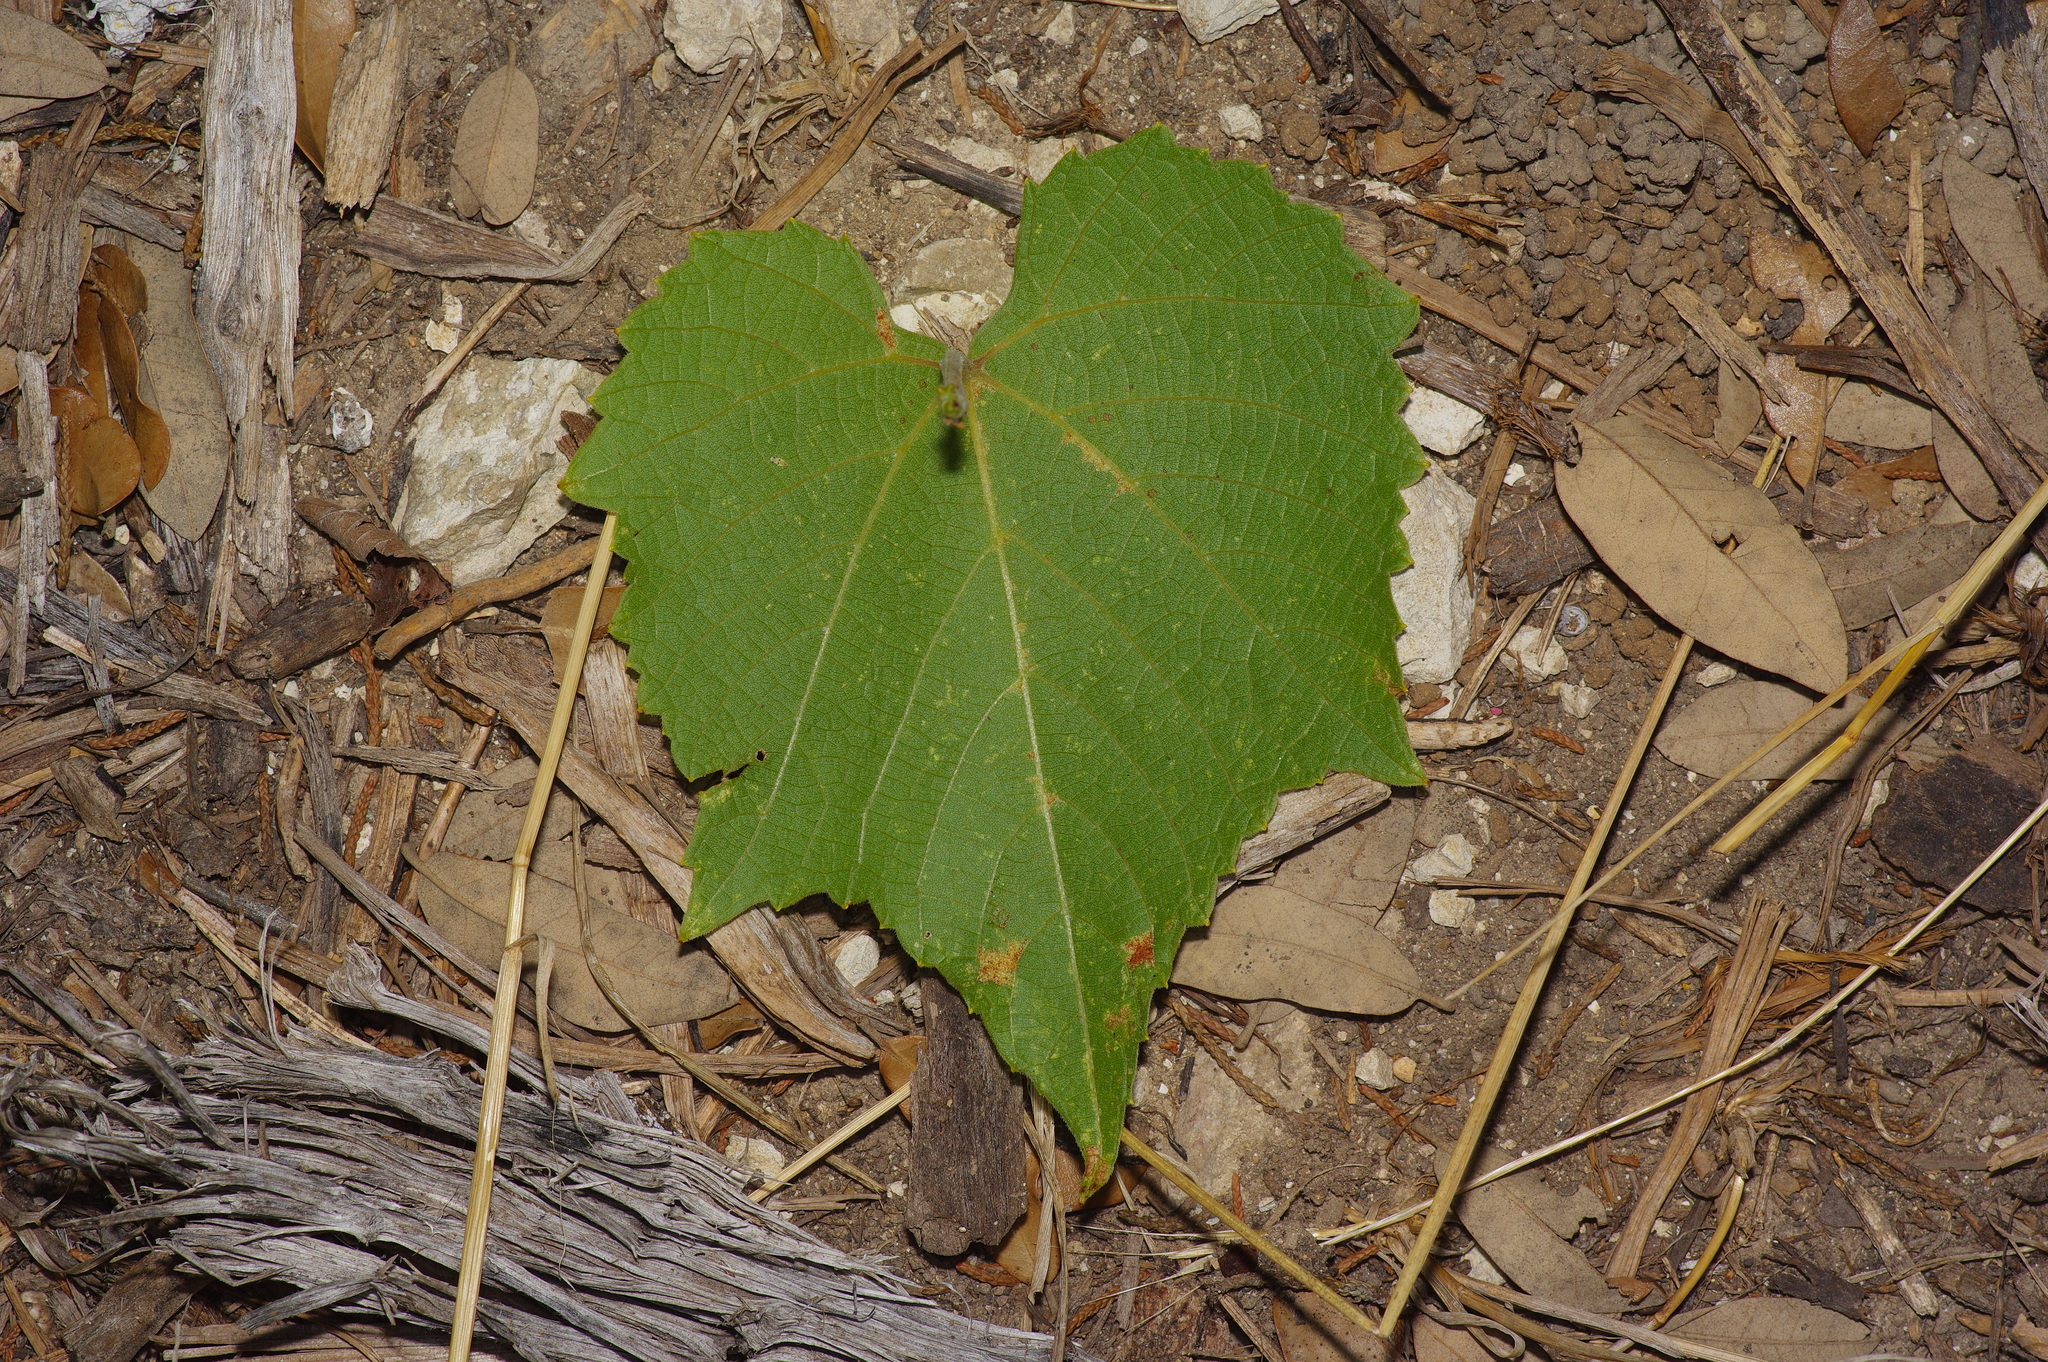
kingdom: Plantae
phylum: Tracheophyta
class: Magnoliopsida
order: Vitales
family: Vitaceae
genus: Vitis
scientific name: Vitis cinerea
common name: Ashy grape
